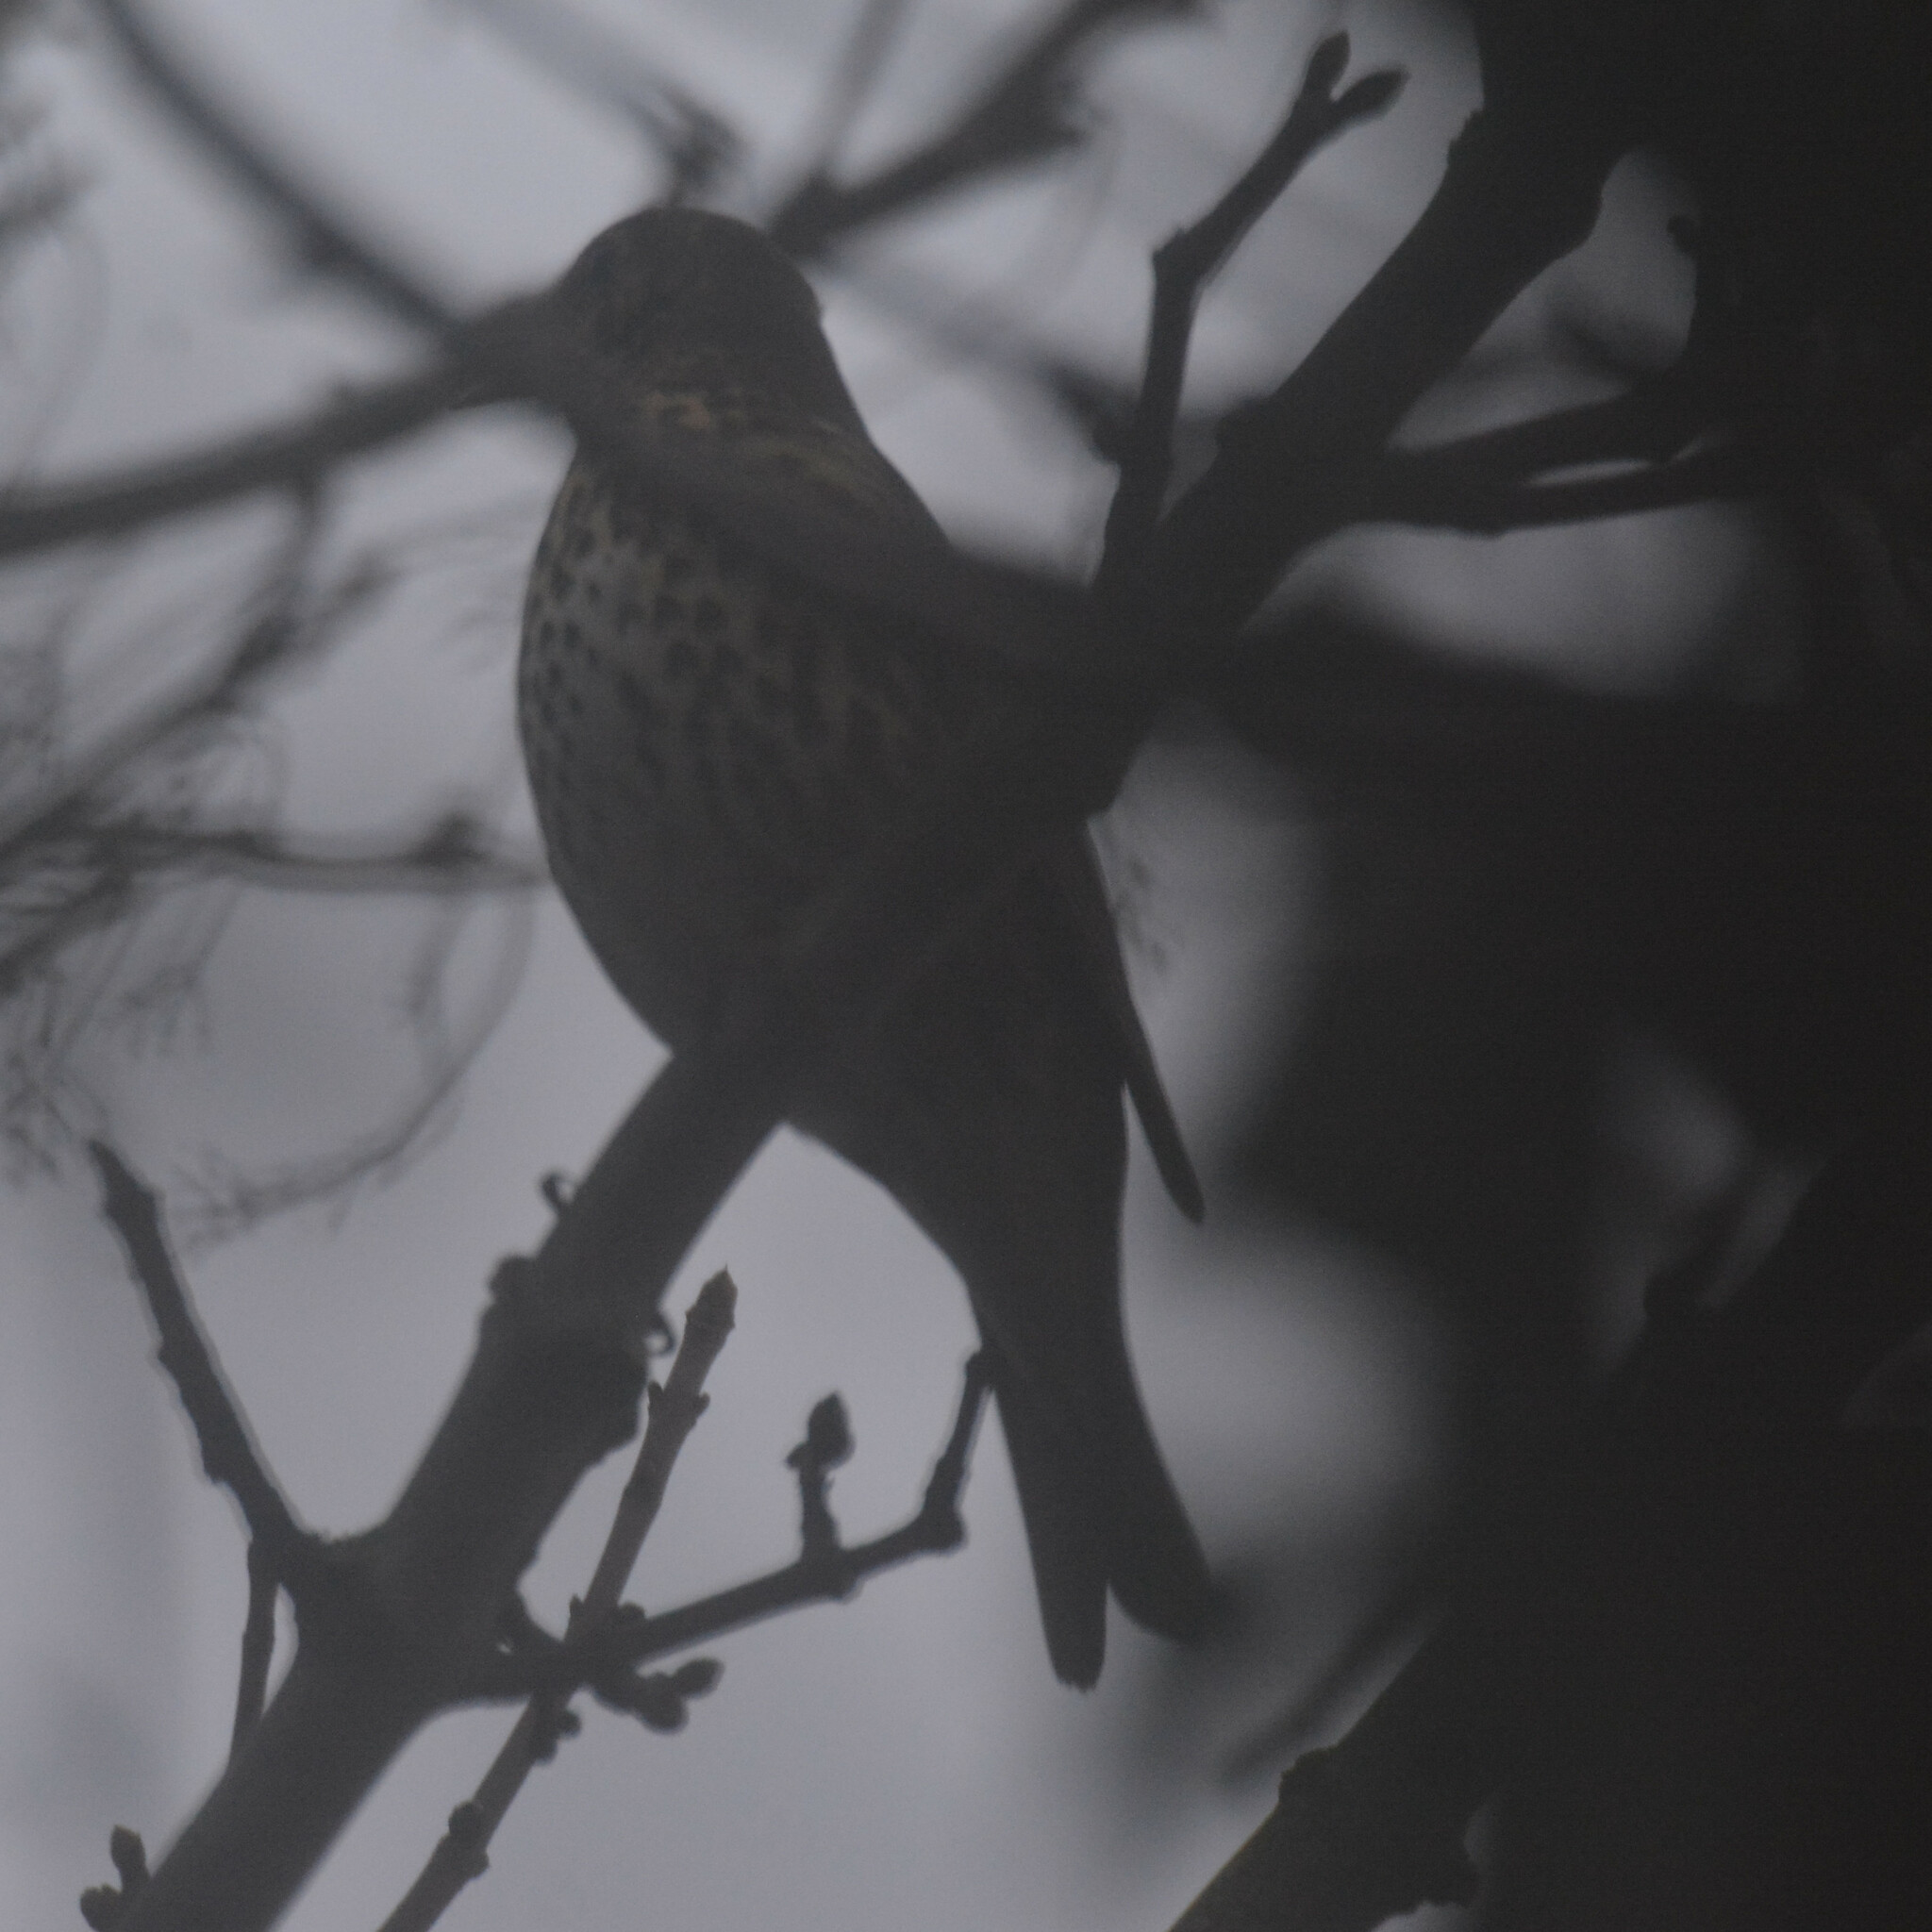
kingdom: Animalia
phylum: Chordata
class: Aves
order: Passeriformes
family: Turdidae
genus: Turdus
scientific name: Turdus philomelos
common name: Song thrush
